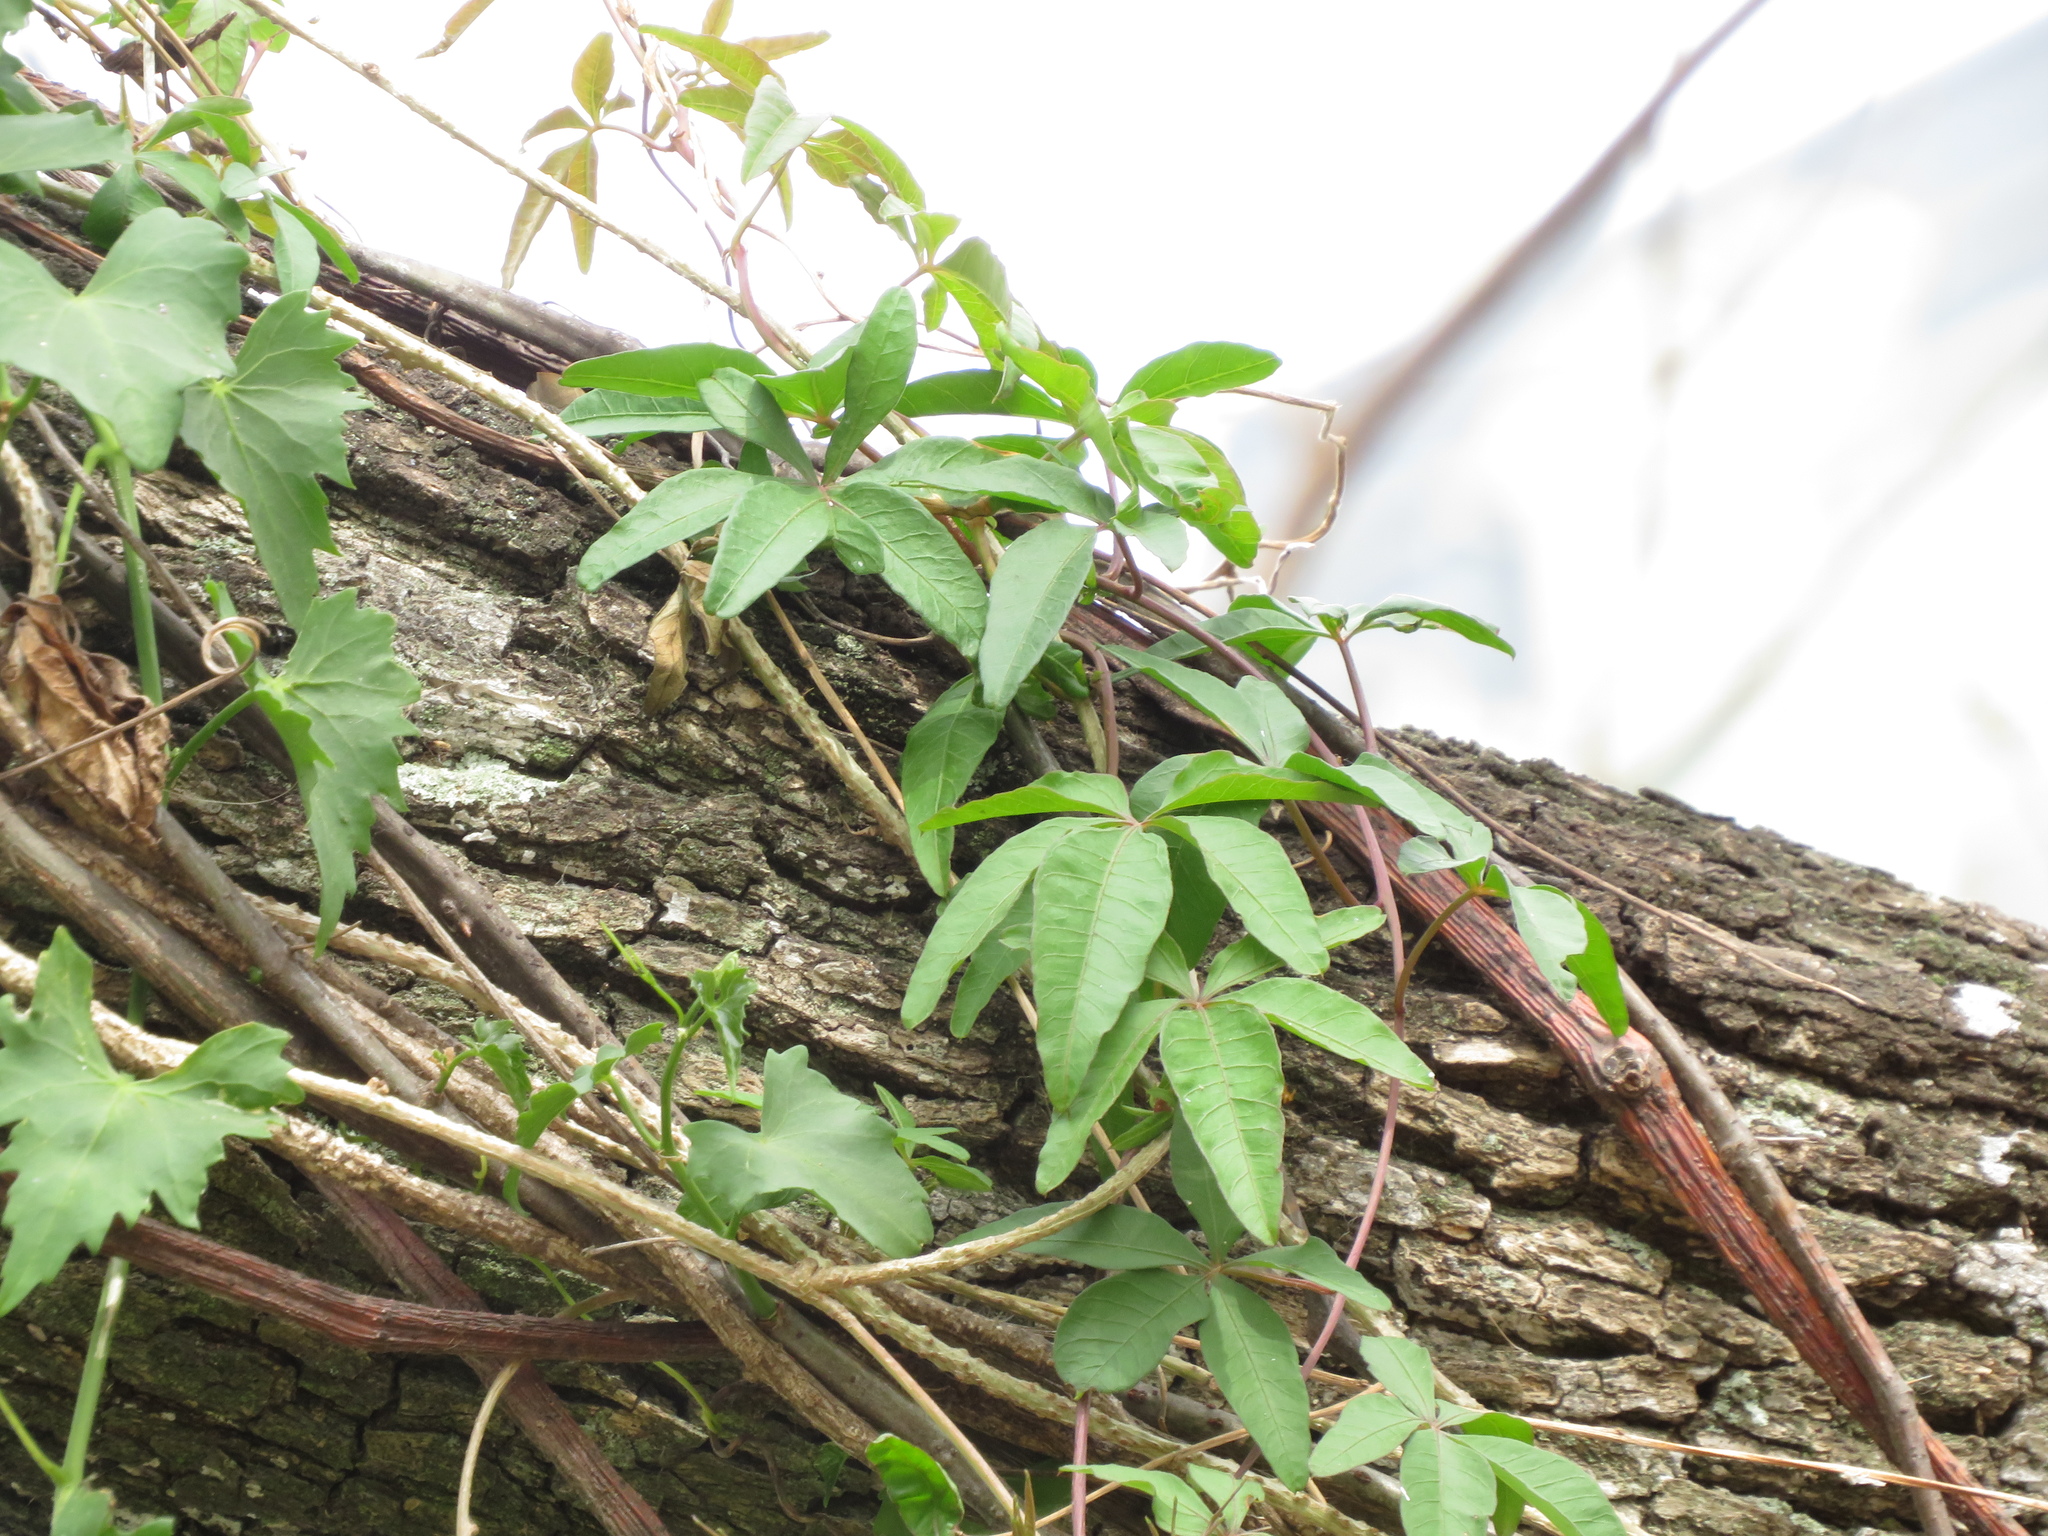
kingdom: Plantae
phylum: Tracheophyta
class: Magnoliopsida
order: Solanales
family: Convolvulaceae
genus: Ipomoea
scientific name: Ipomoea cairica
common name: Mile a minute vine
